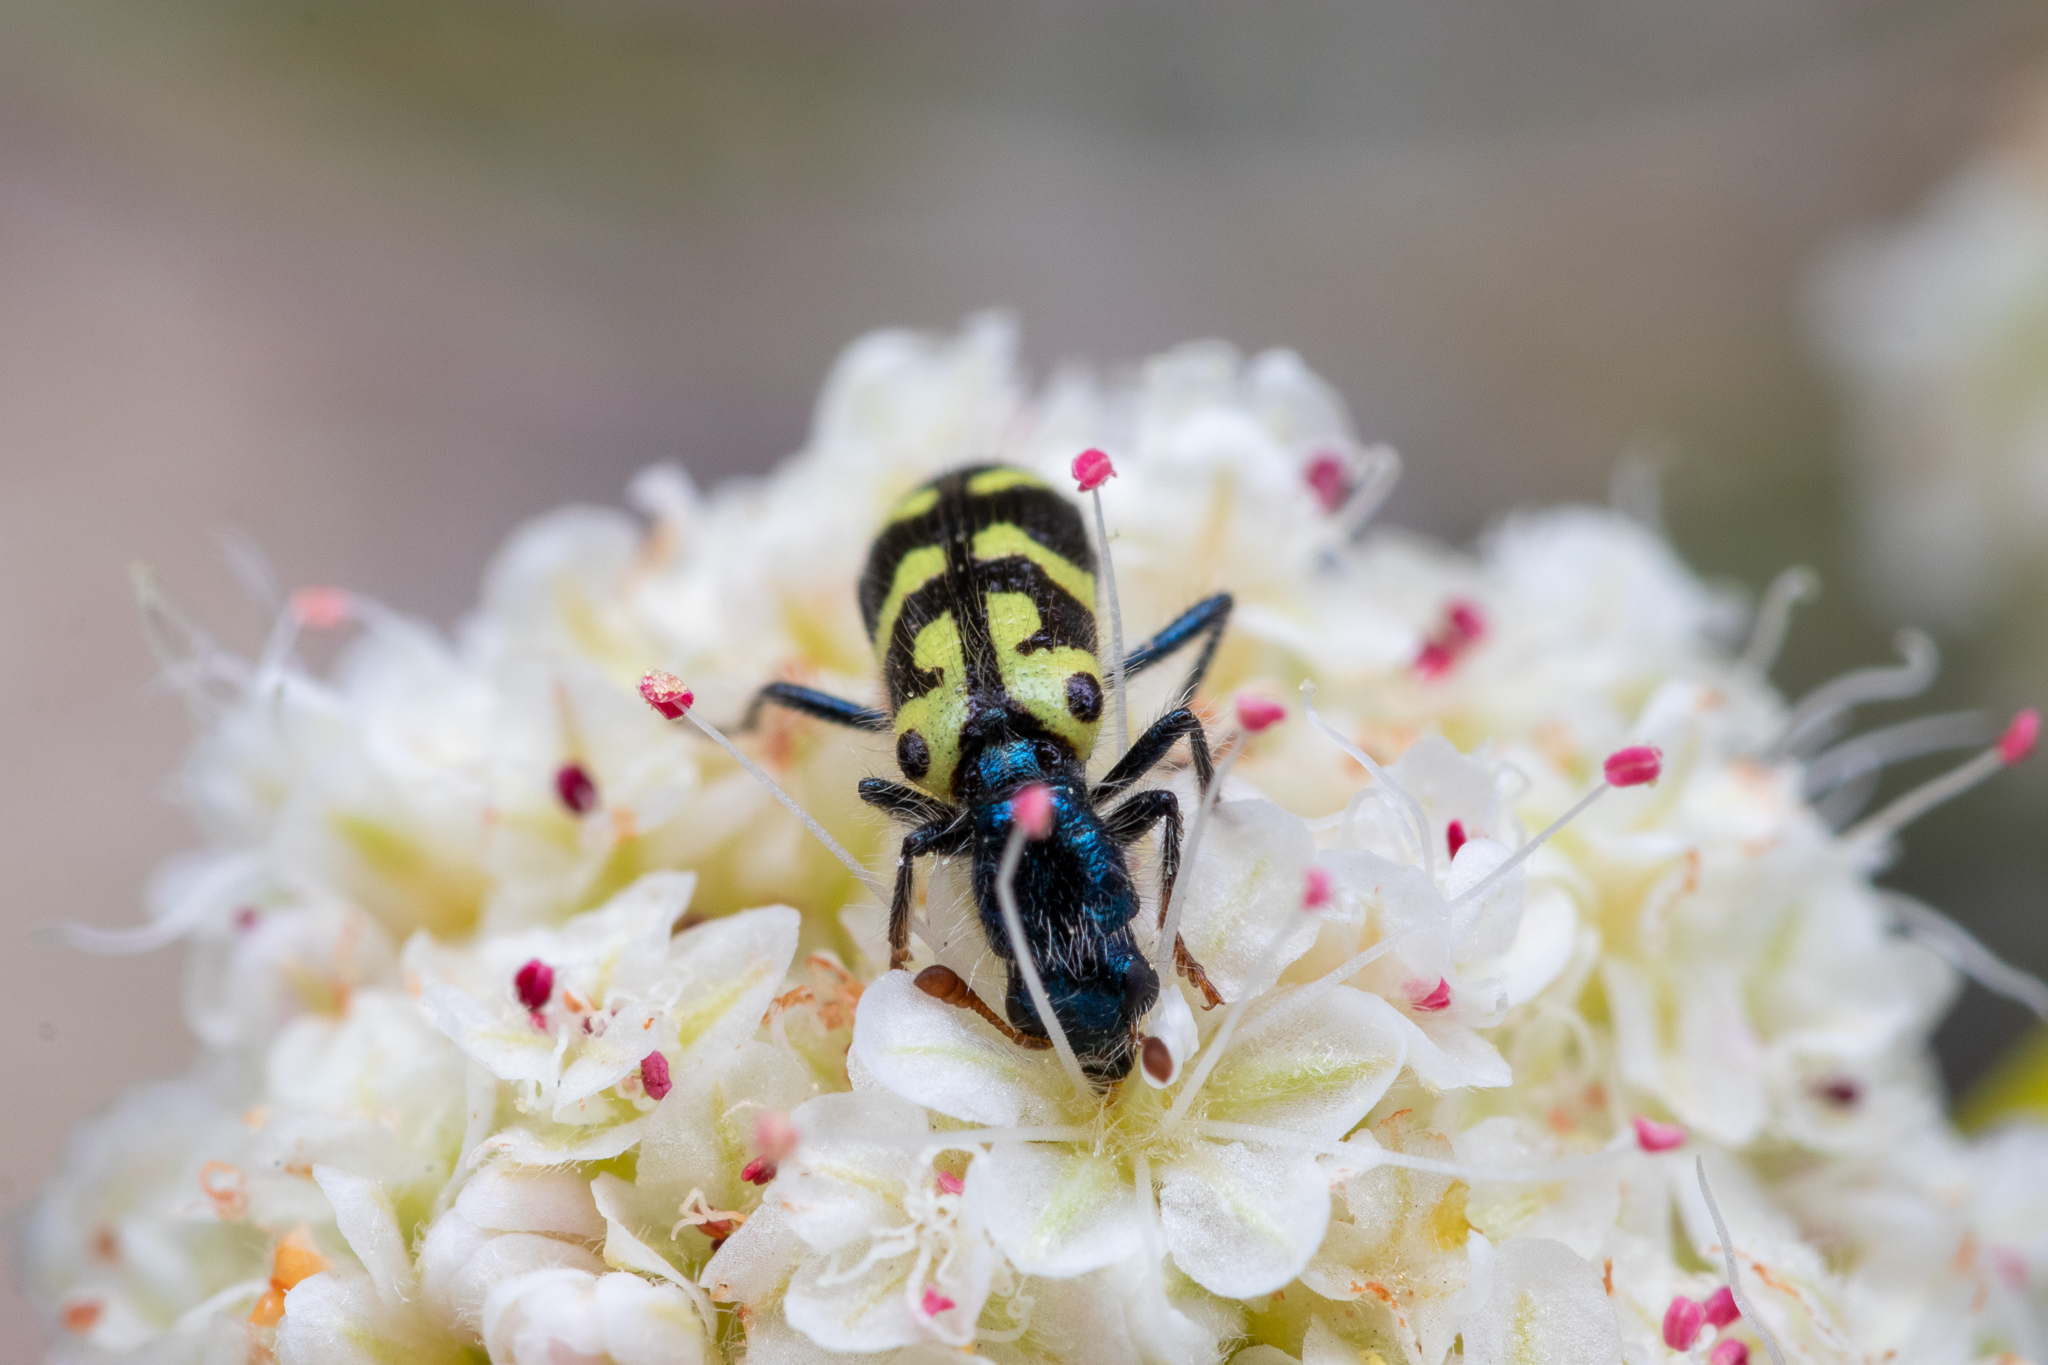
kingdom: Animalia
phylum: Arthropoda
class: Insecta
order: Coleoptera
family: Cleridae
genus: Trichodes
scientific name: Trichodes ornatus
